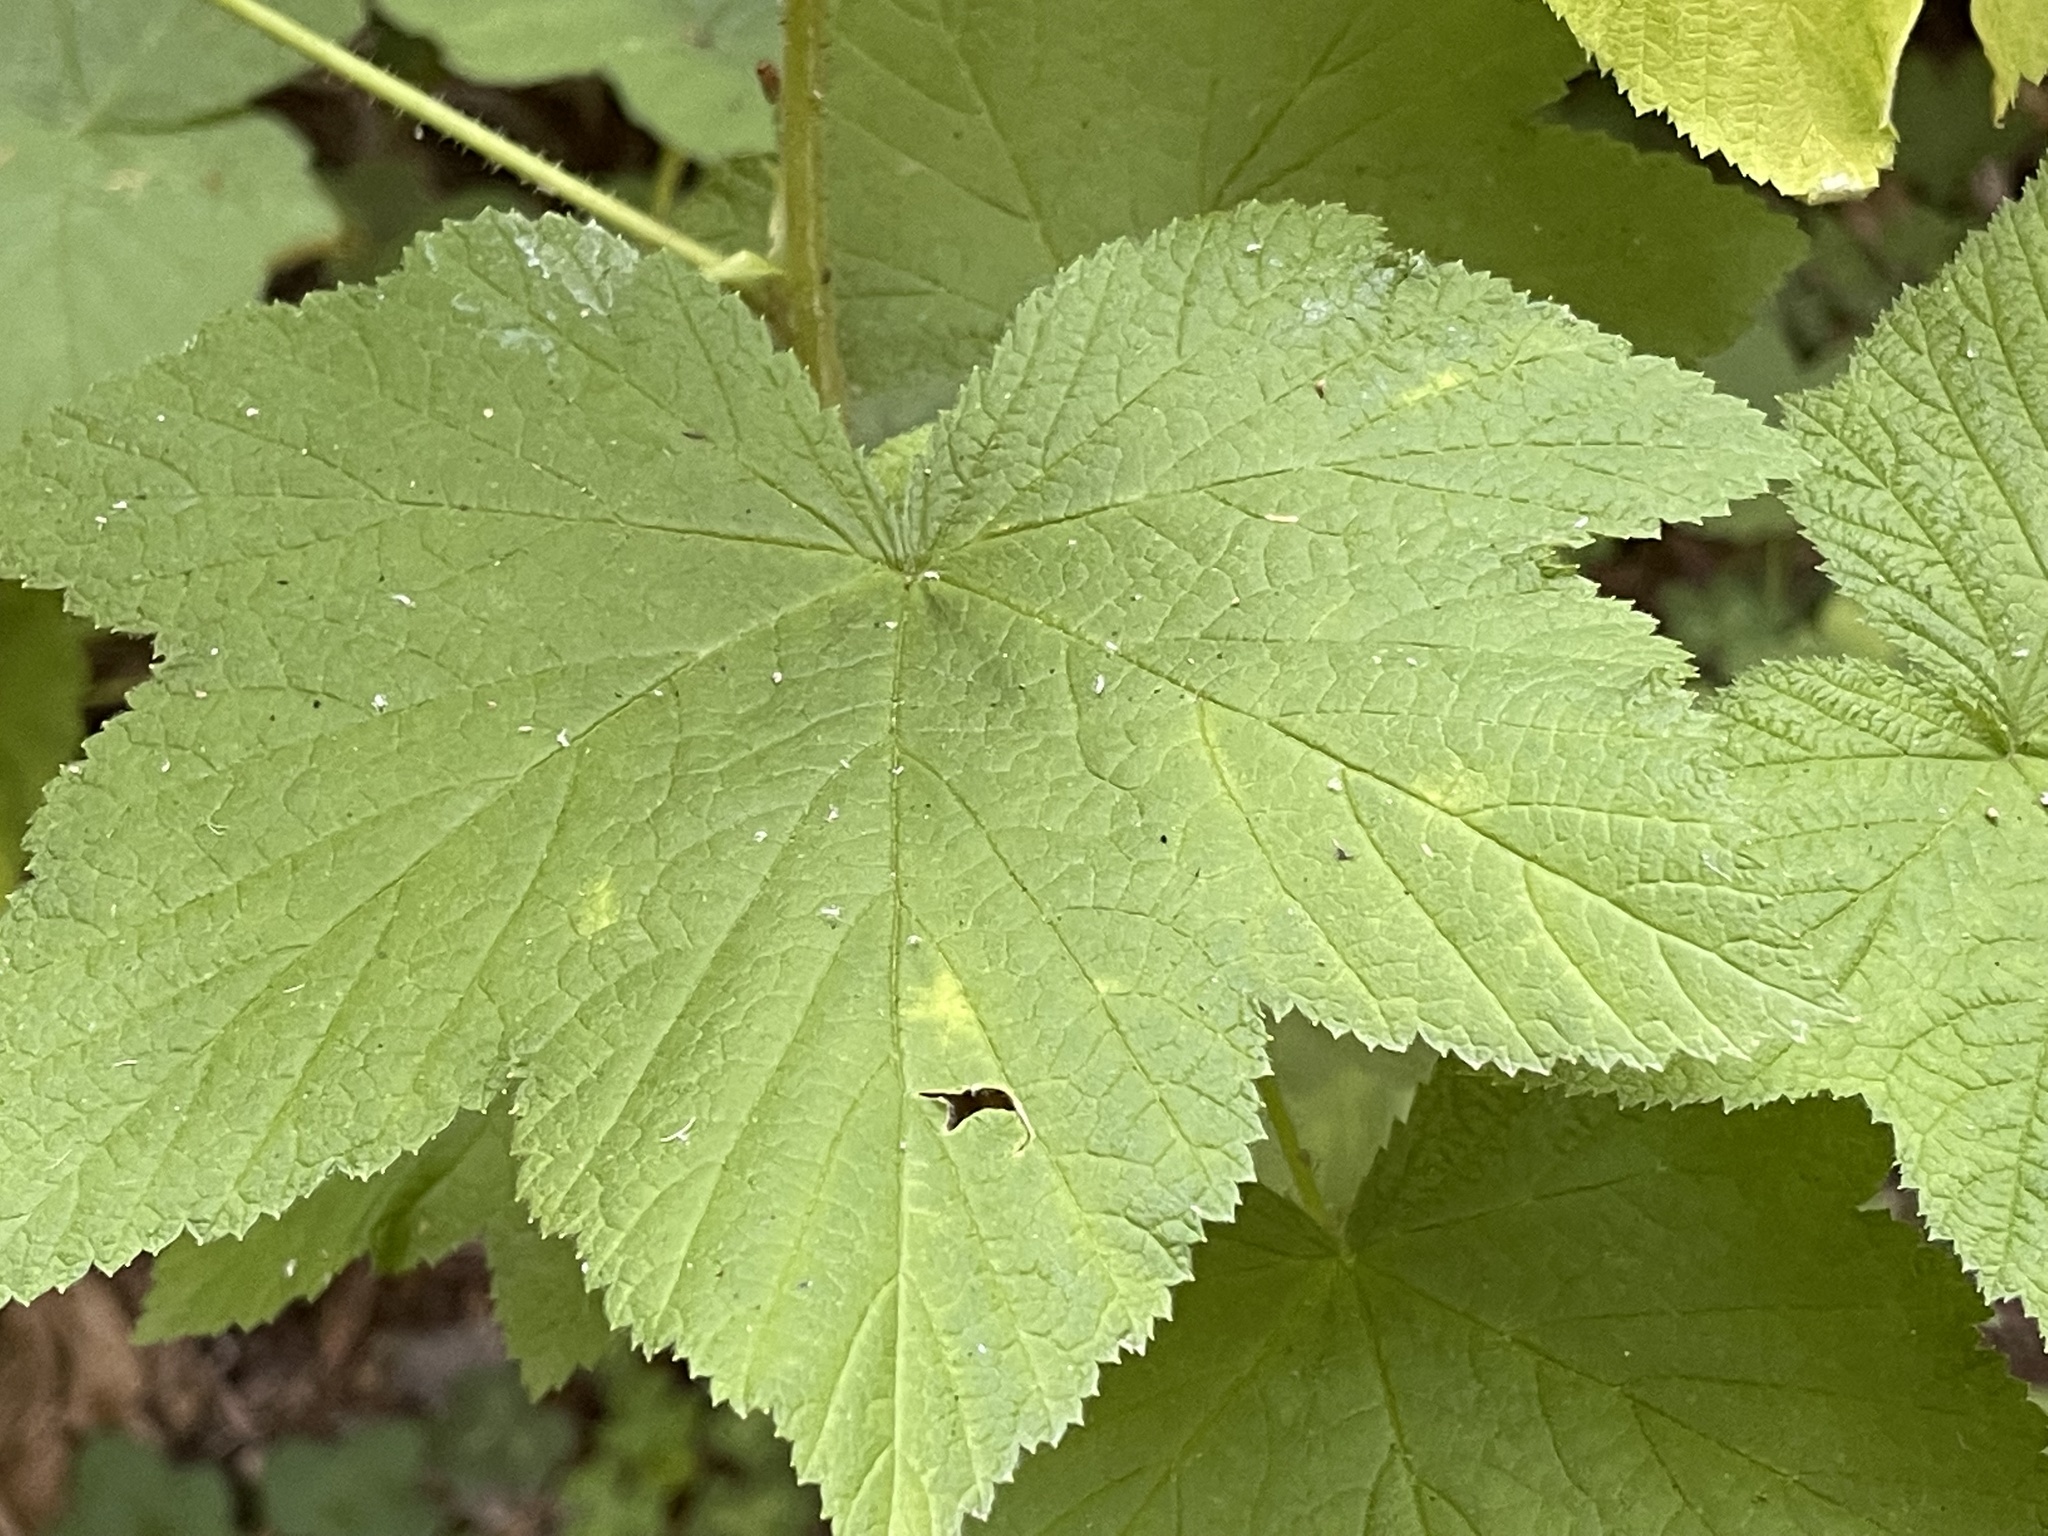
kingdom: Plantae
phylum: Tracheophyta
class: Magnoliopsida
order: Rosales
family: Rosaceae
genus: Rubus
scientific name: Rubus parviflorus
